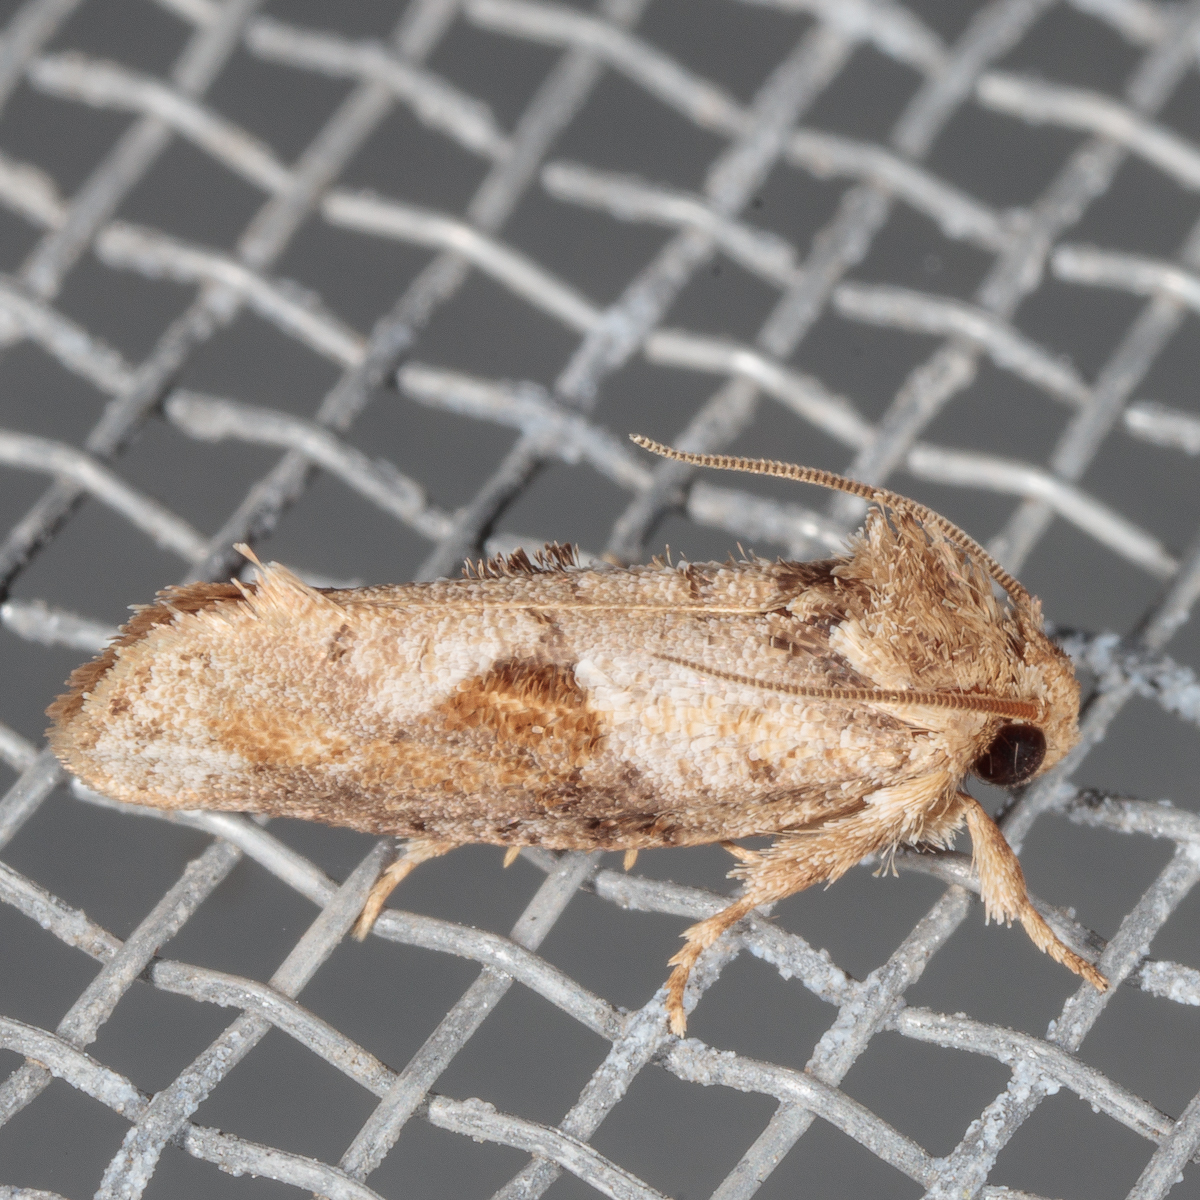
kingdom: Animalia
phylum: Arthropoda
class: Insecta
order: Lepidoptera
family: Tineidae
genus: Acrolophus
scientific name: Acrolophus piger
